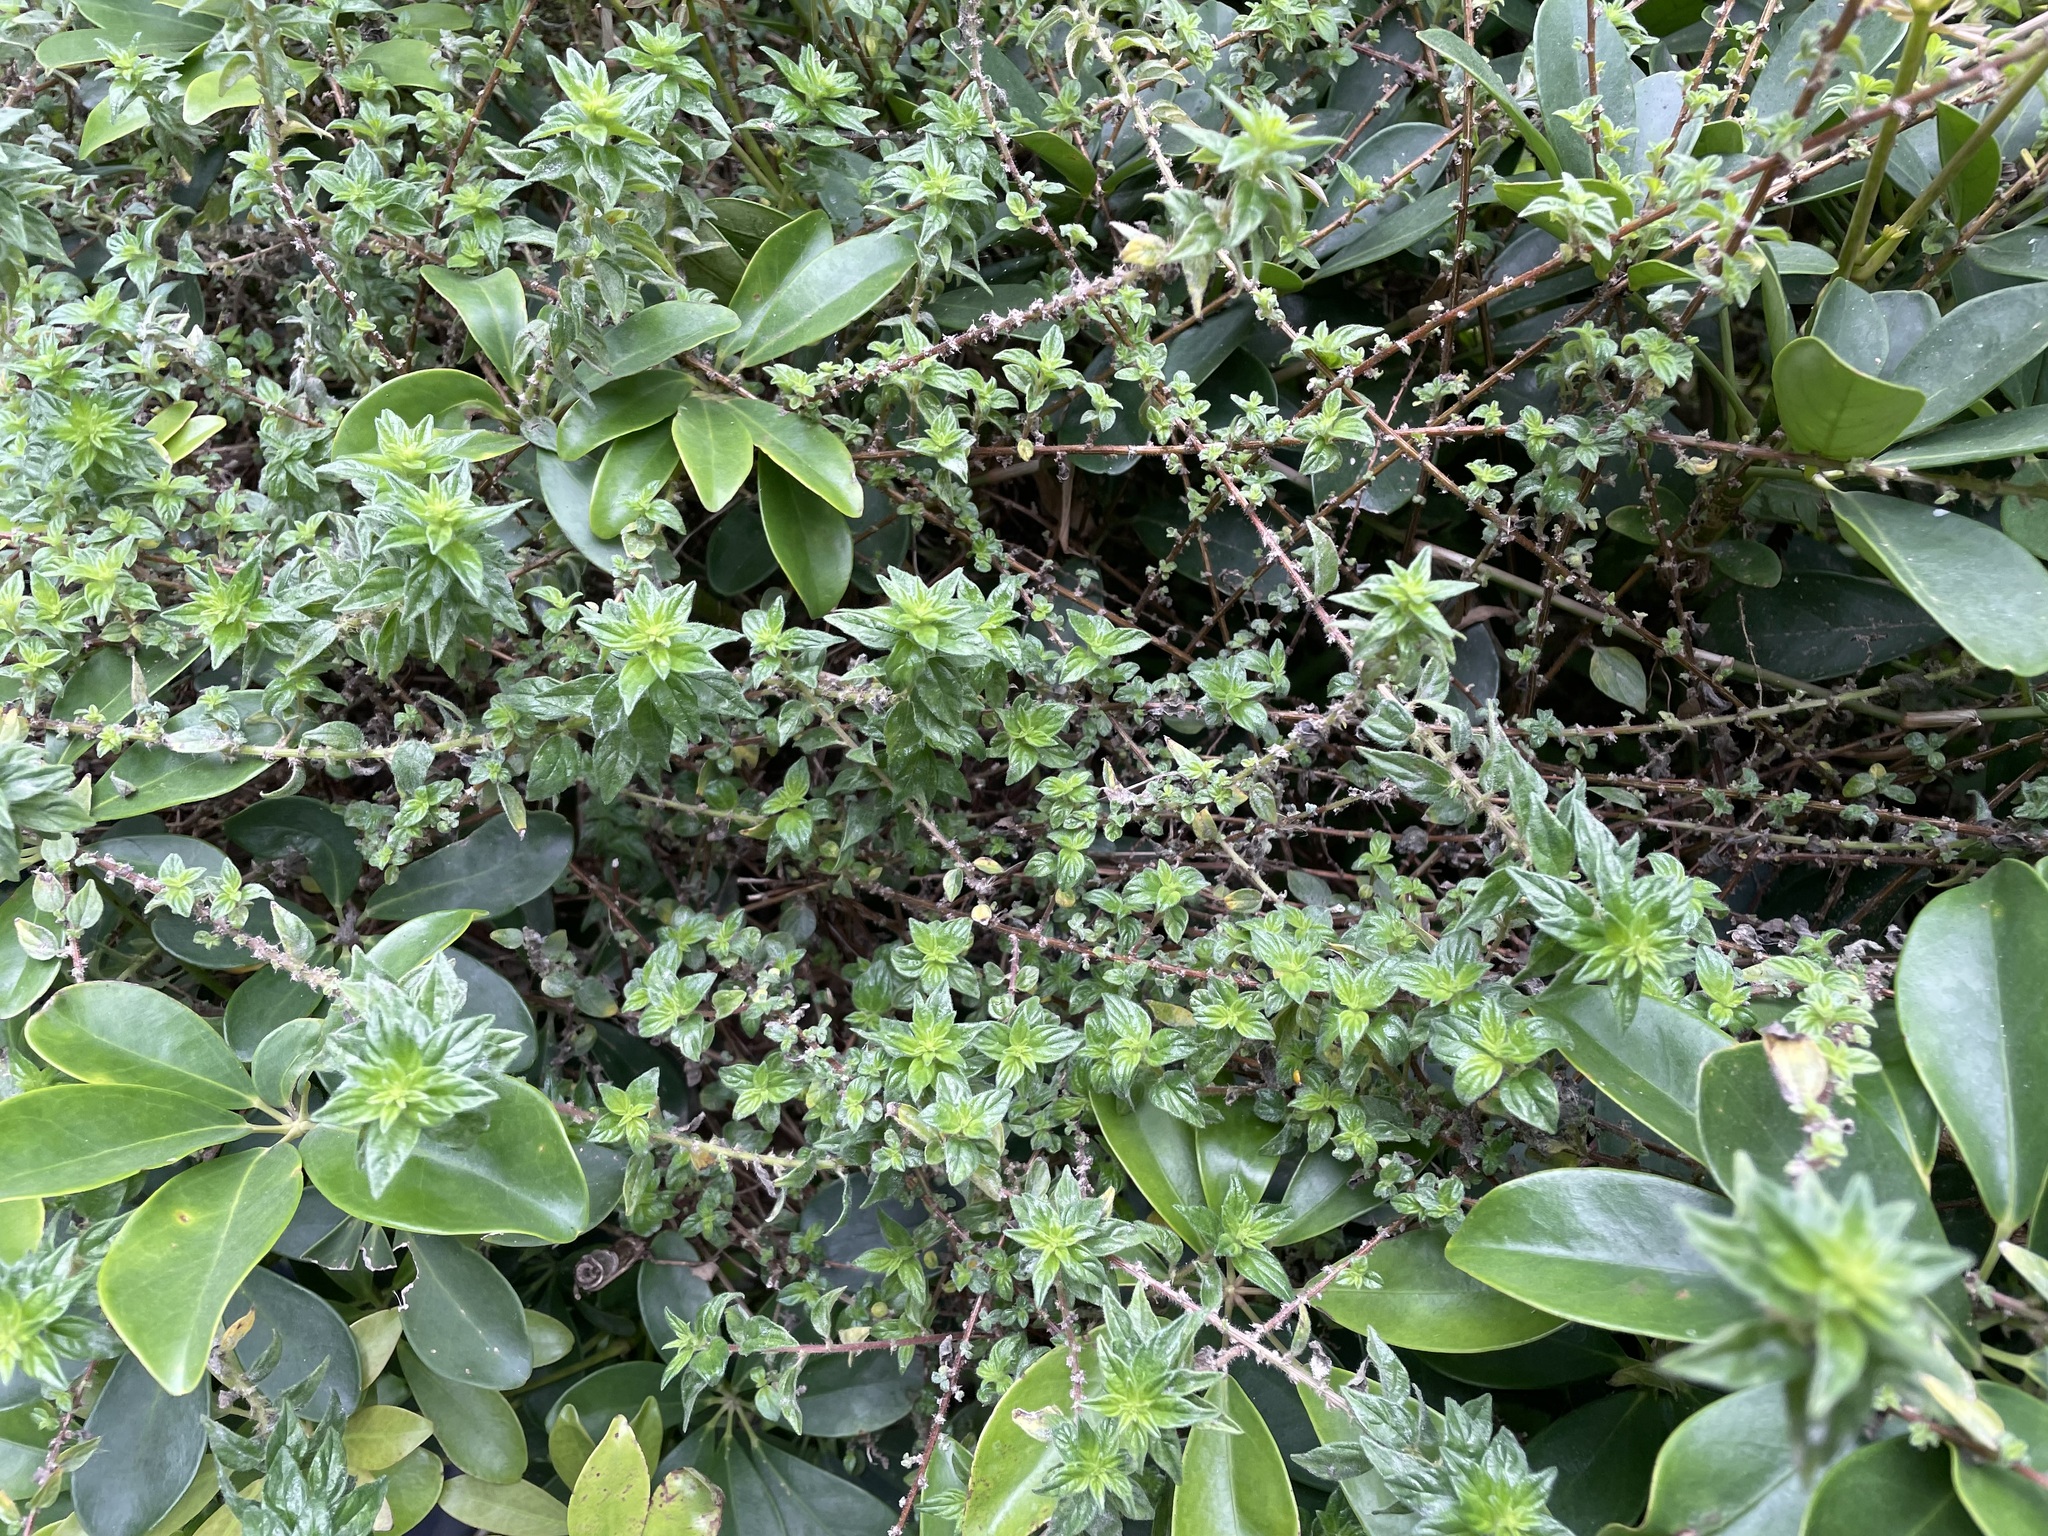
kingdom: Plantae
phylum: Tracheophyta
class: Magnoliopsida
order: Rosales
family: Urticaceae
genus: Pouzolzia
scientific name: Pouzolzia zeylanica
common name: Graceful pouzolzsbush
